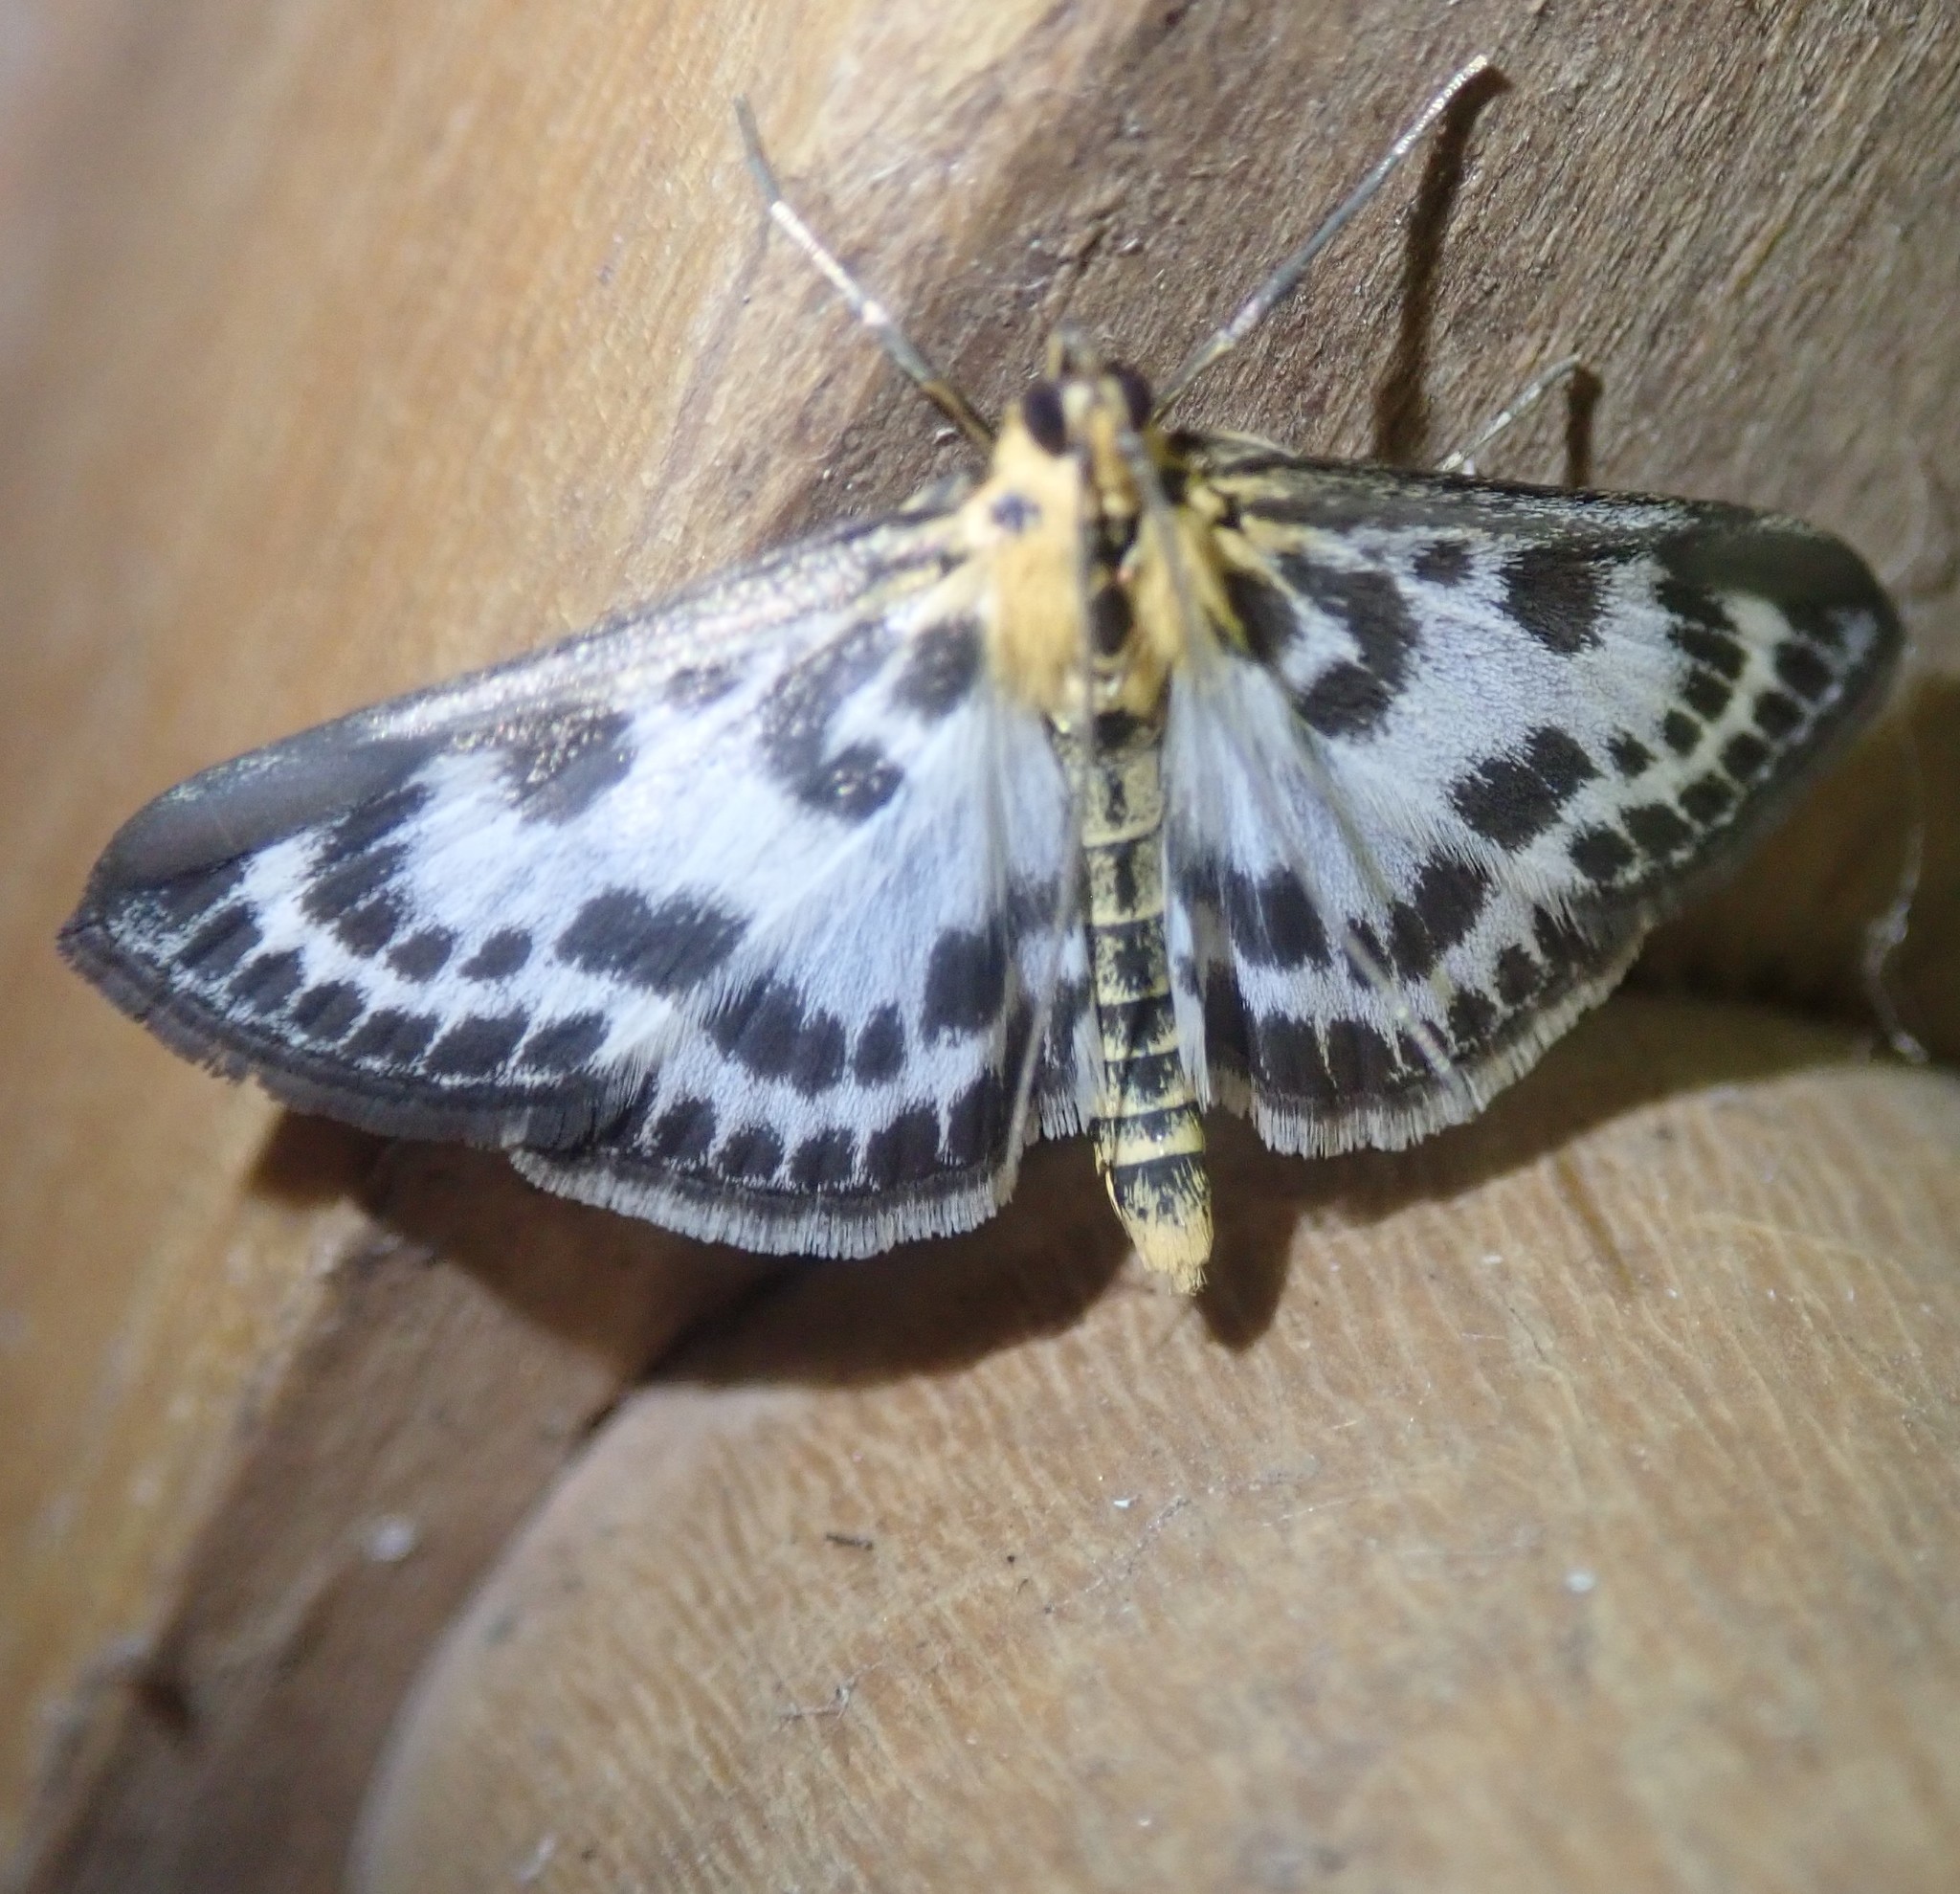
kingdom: Animalia
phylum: Arthropoda
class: Insecta
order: Lepidoptera
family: Crambidae
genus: Anania
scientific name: Anania hortulata
